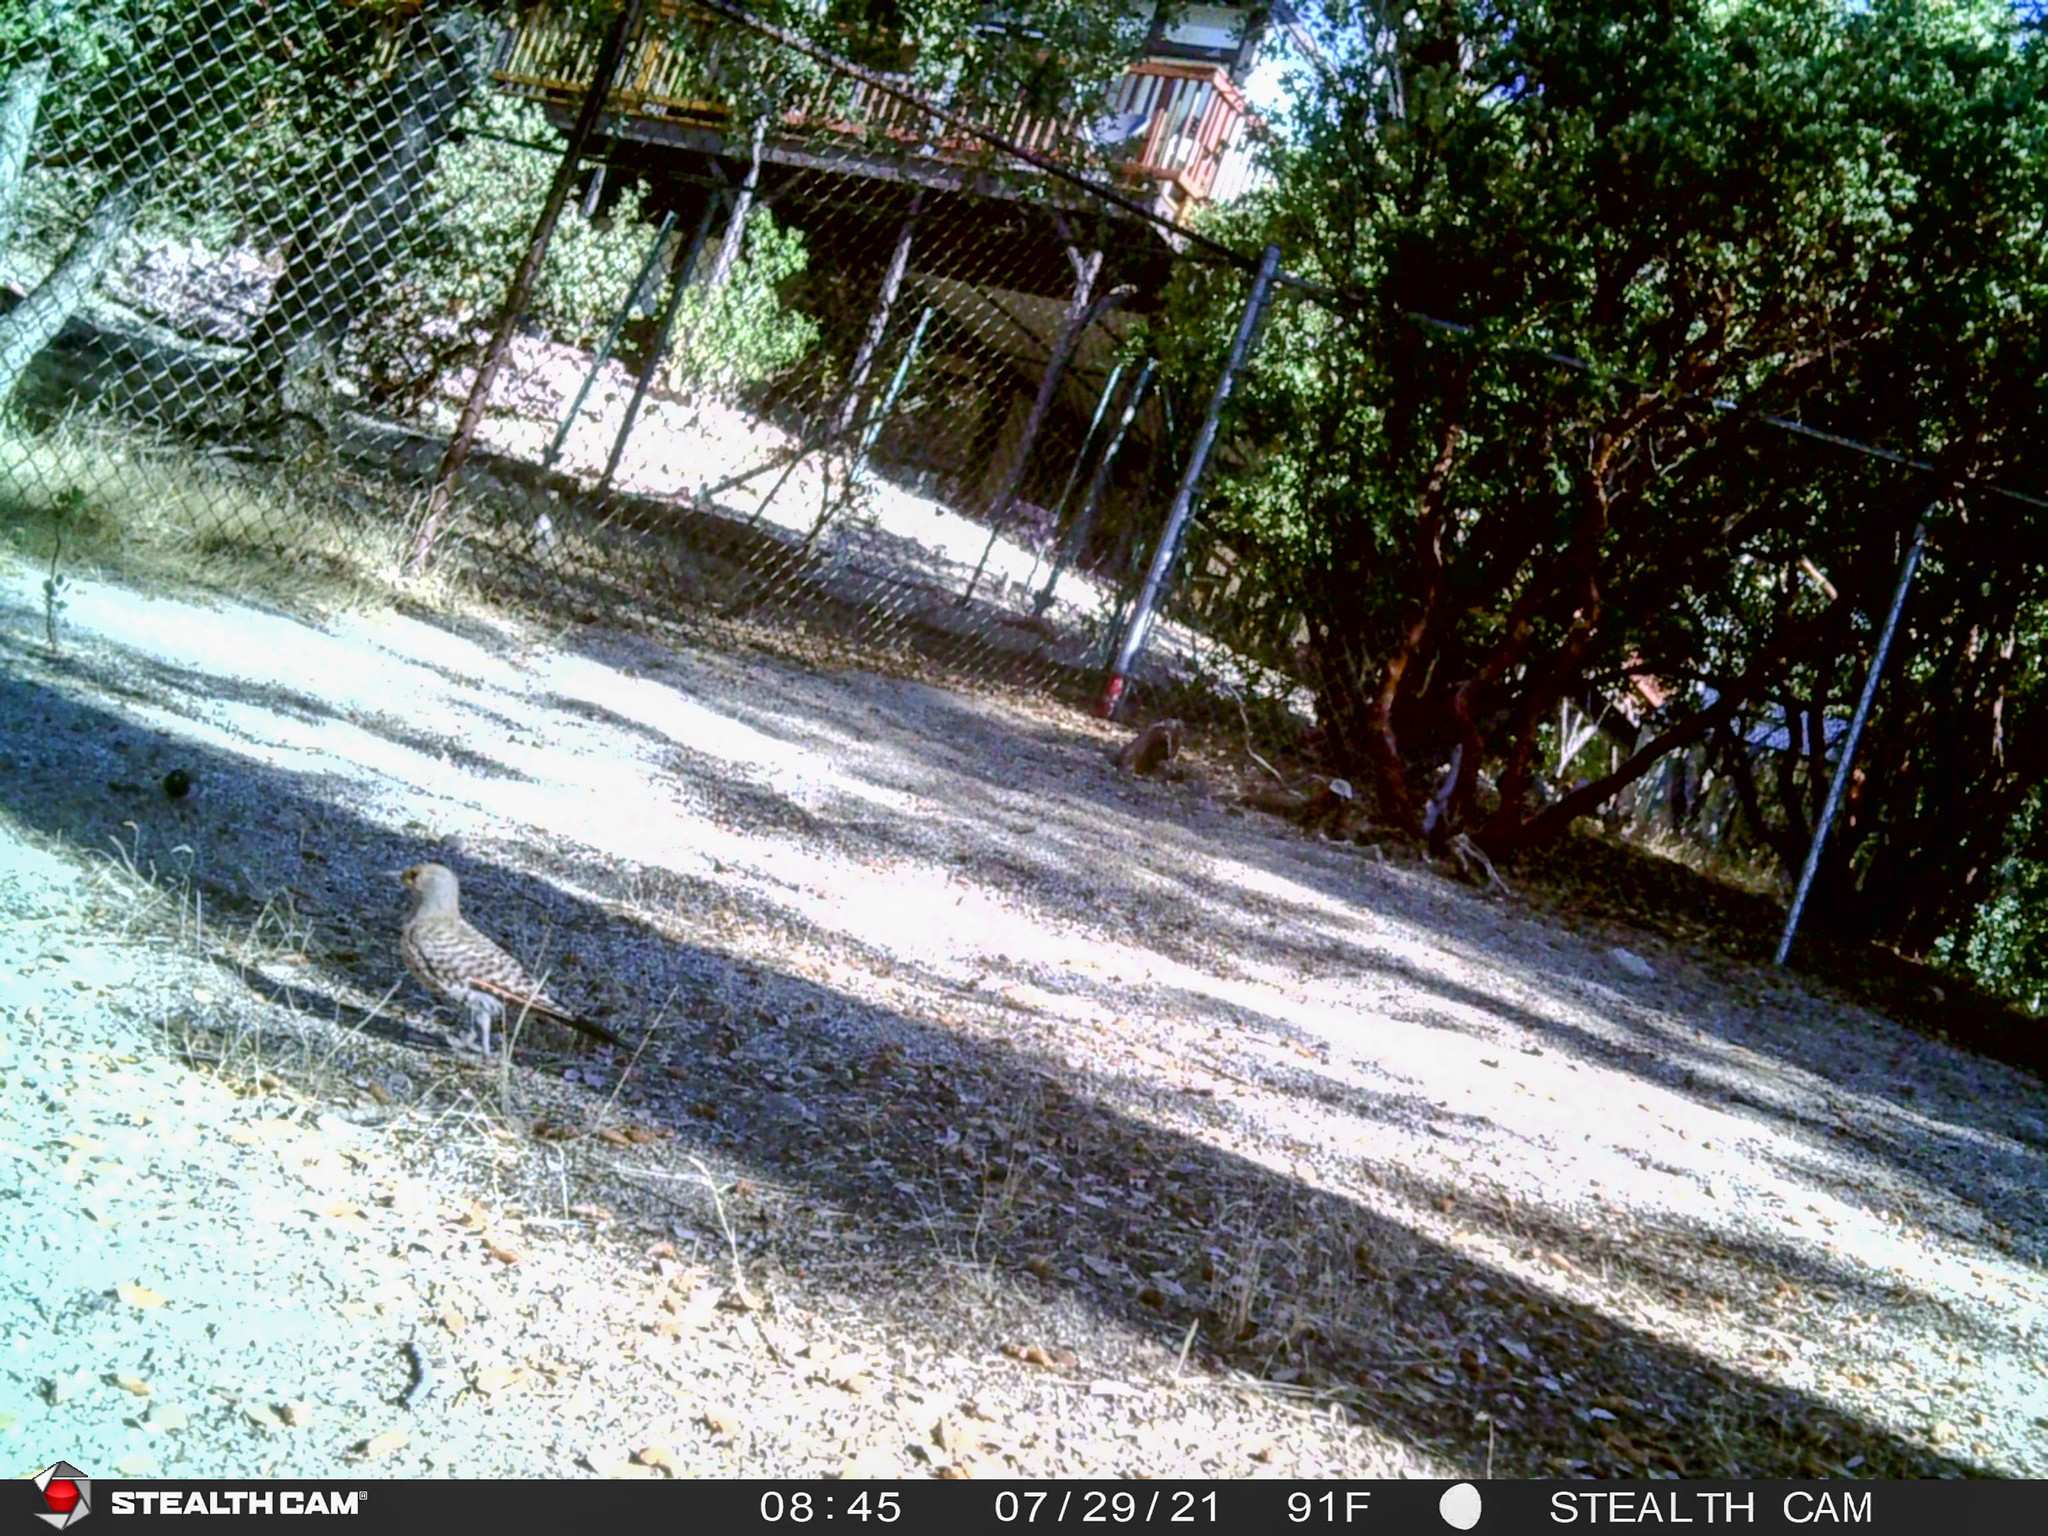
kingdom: Animalia
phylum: Chordata
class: Aves
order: Piciformes
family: Picidae
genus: Colaptes
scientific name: Colaptes auratus
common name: Northern flicker
